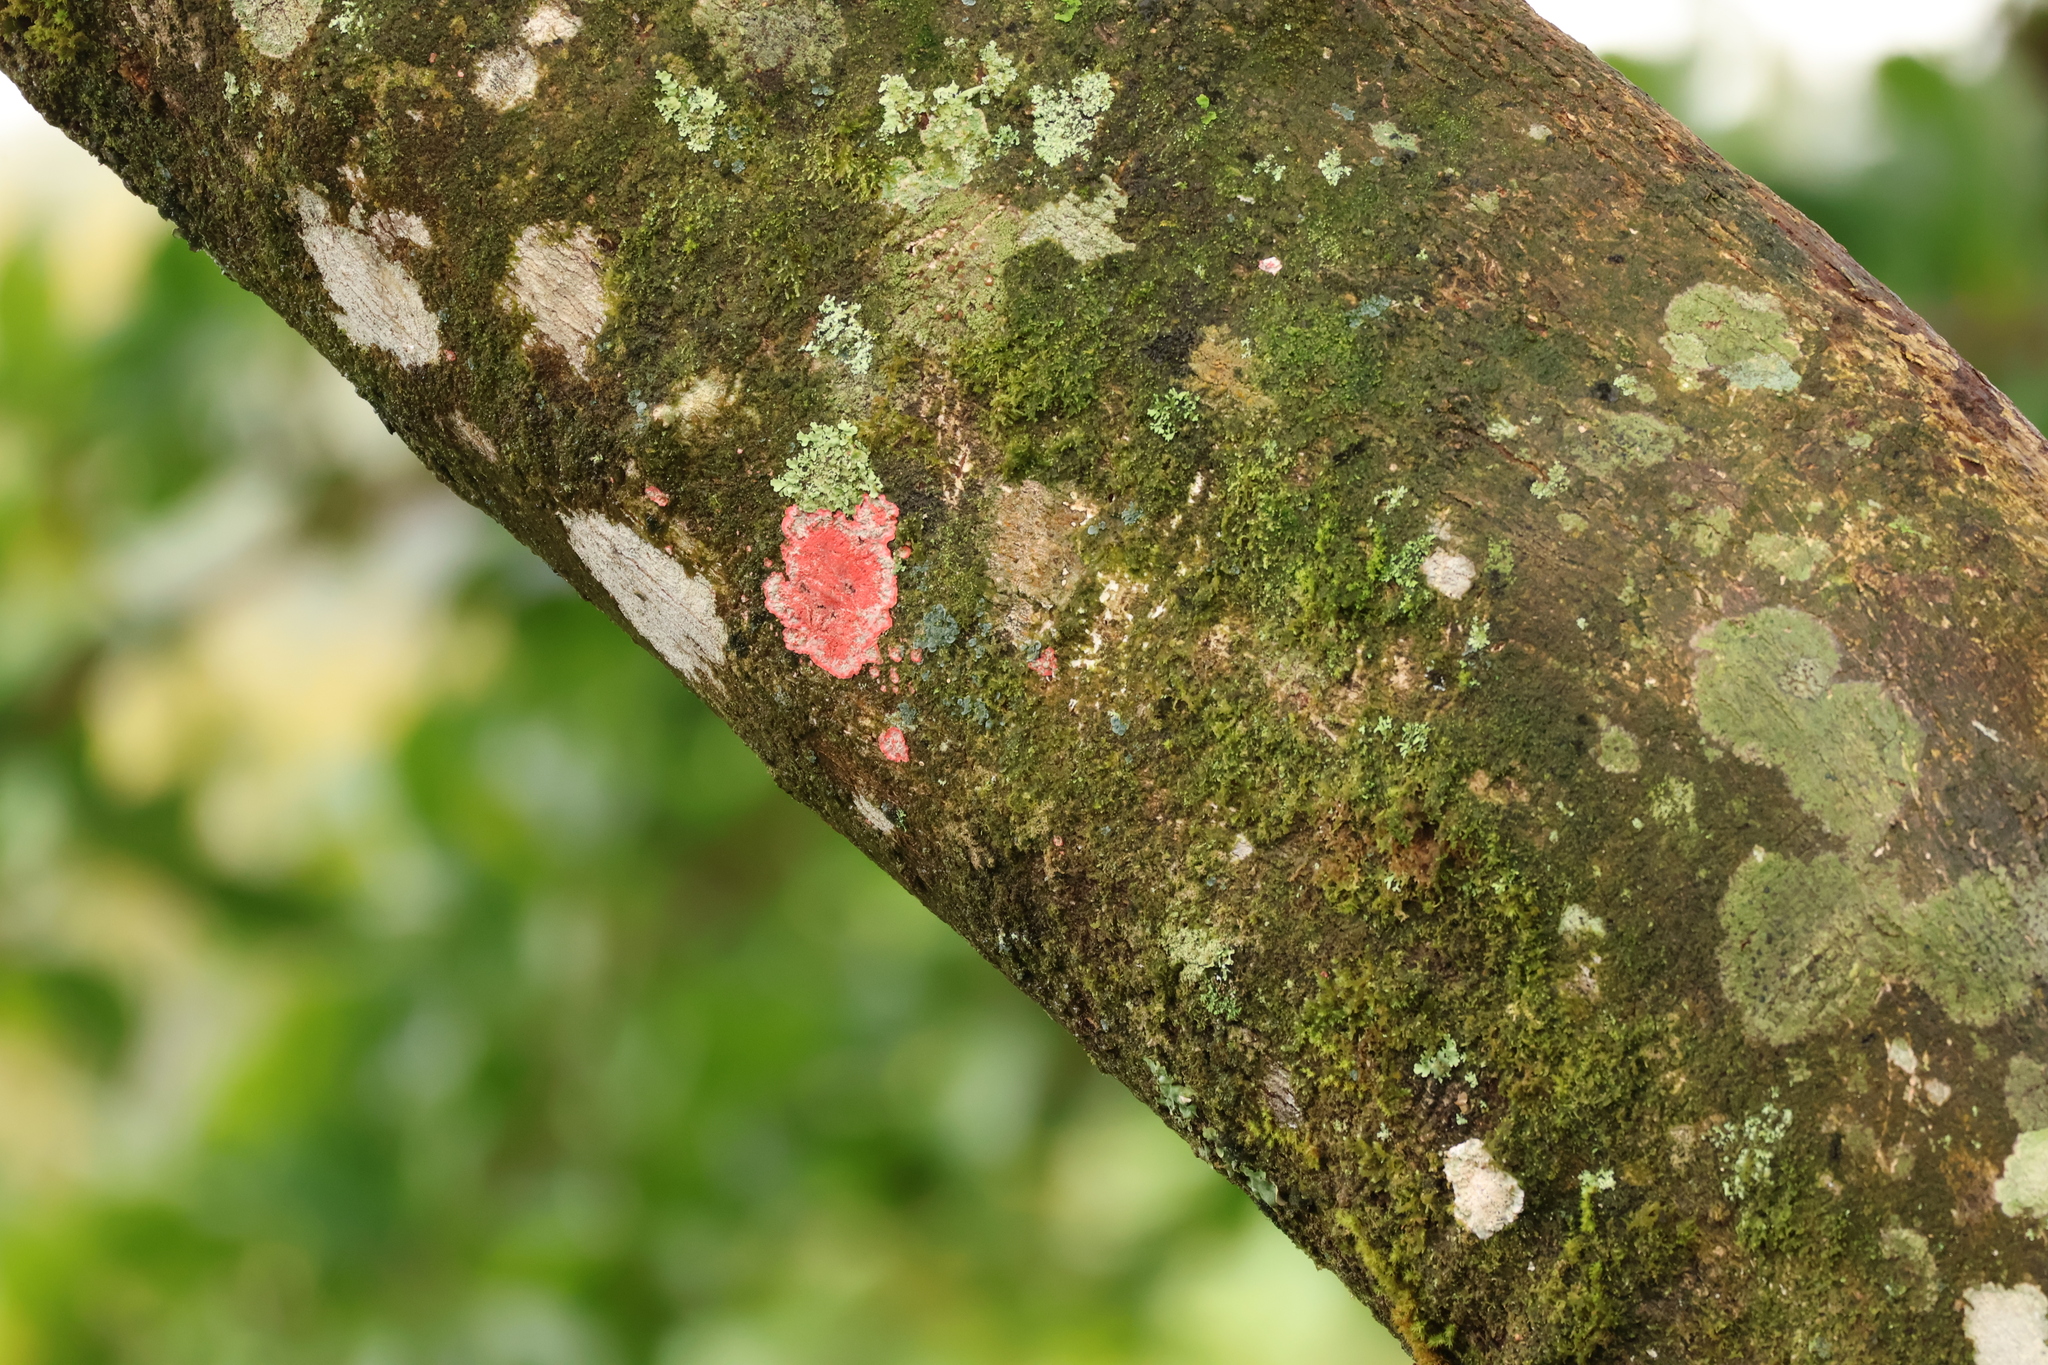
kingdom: Fungi
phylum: Ascomycota
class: Arthoniomycetes
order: Arthoniales
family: Arthoniaceae
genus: Herpothallon
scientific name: Herpothallon rubrocinctum
